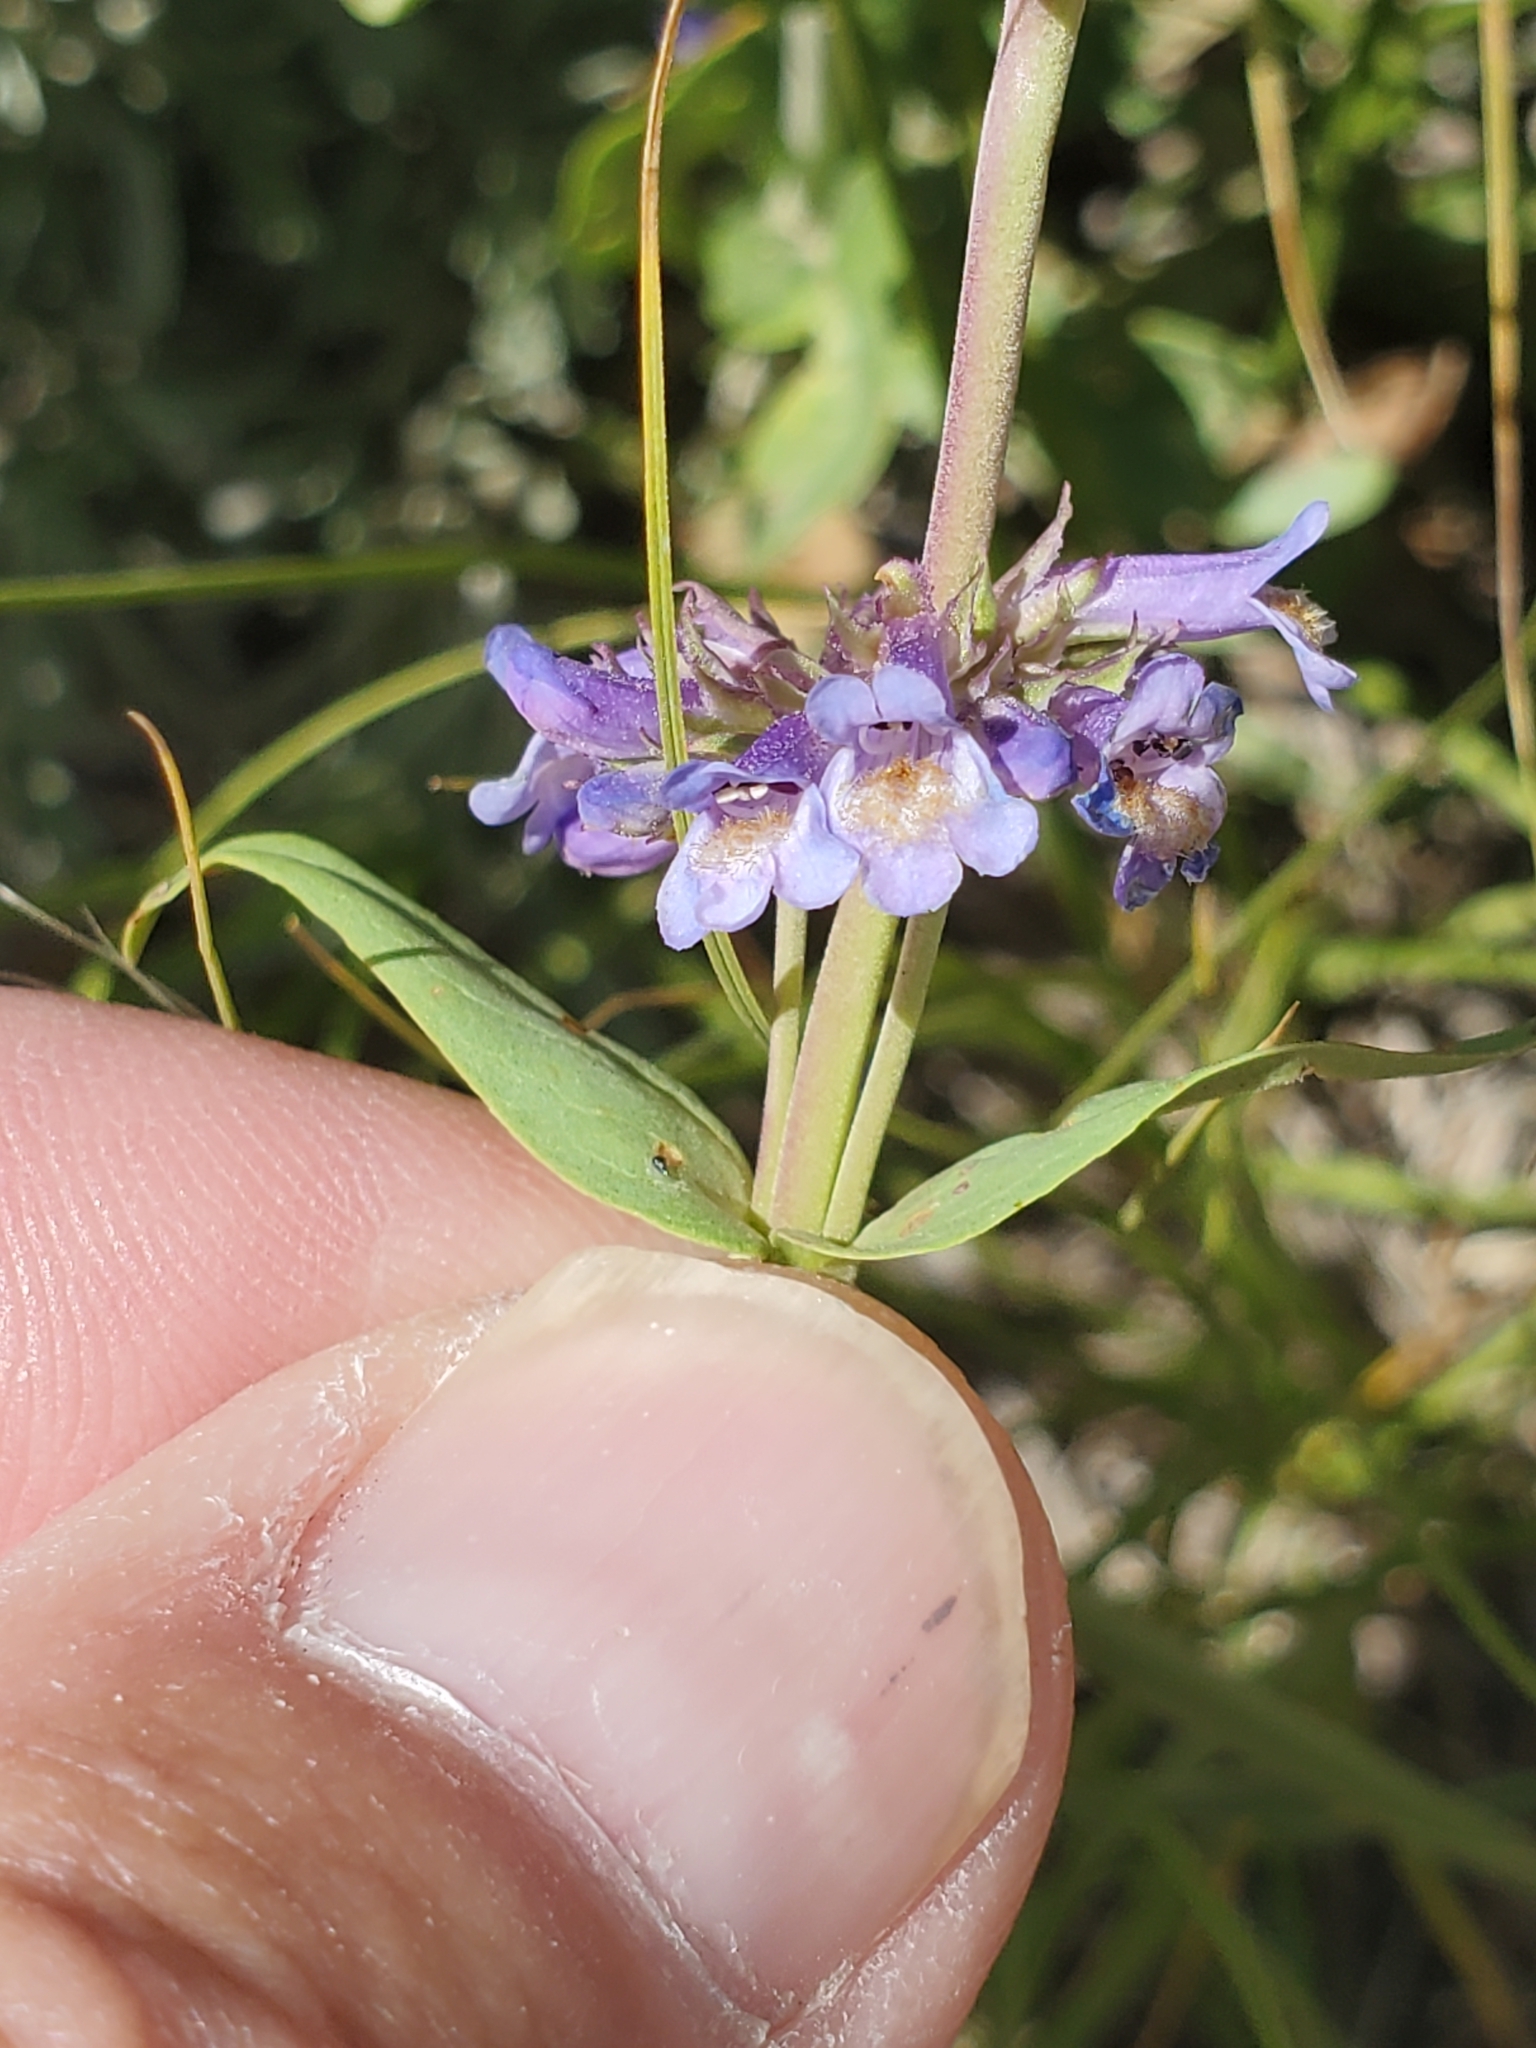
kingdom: Plantae
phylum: Tracheophyta
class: Magnoliopsida
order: Lamiales
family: Plantaginaceae
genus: Penstemon
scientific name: Penstemon rydbergii
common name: Rydberg's beardtongue
